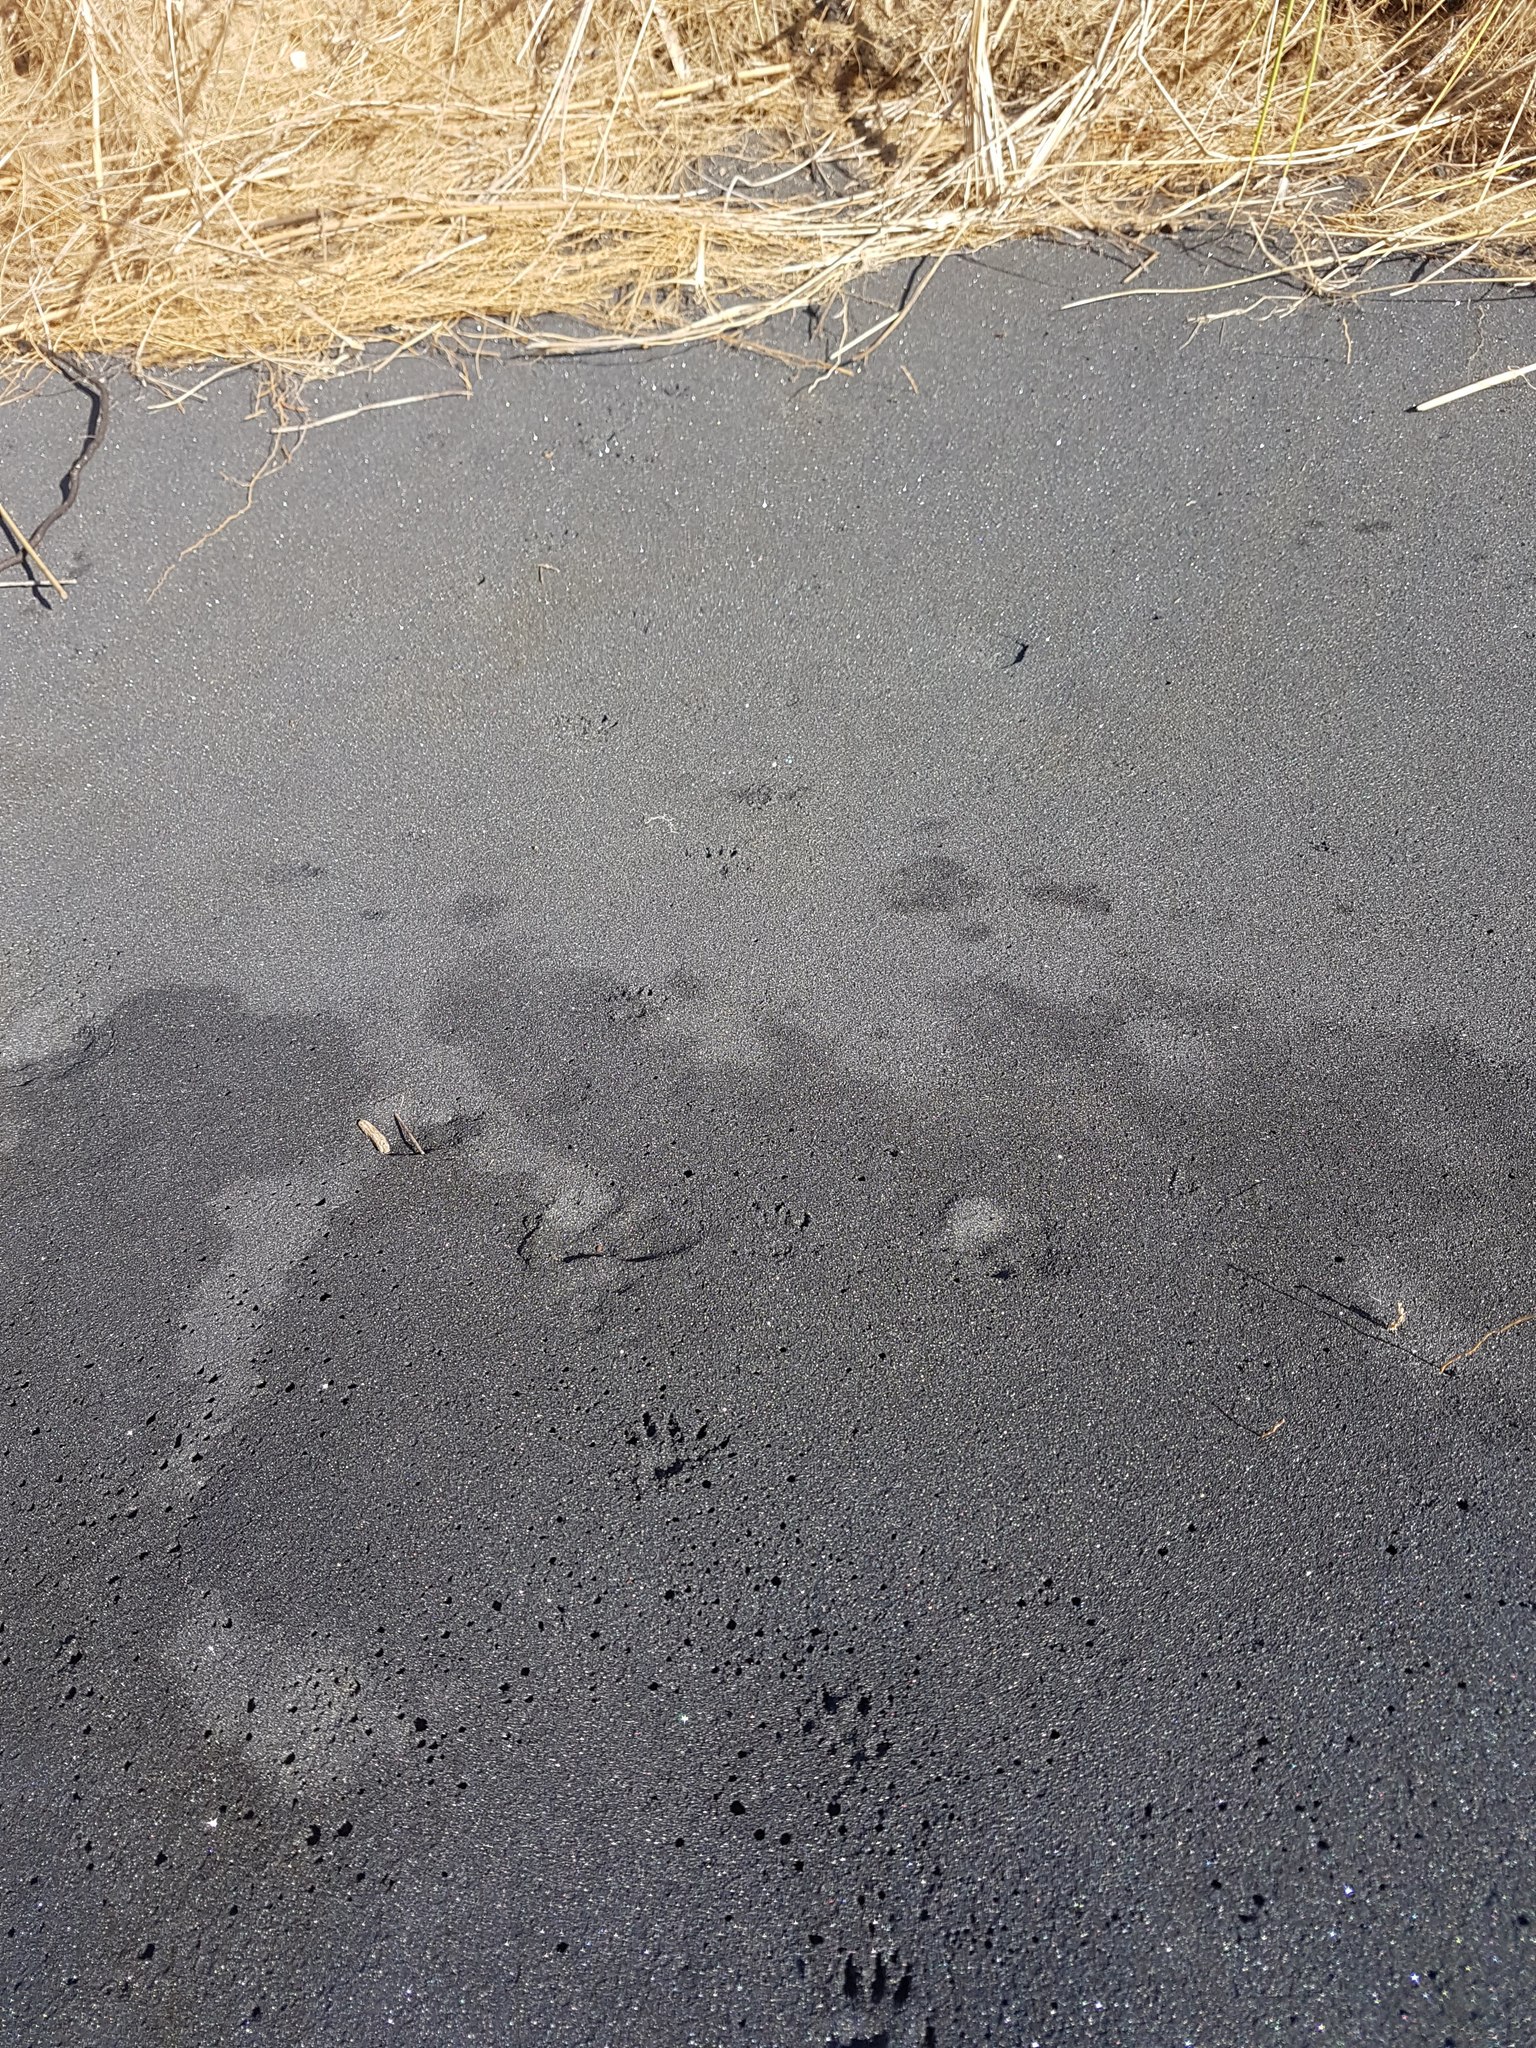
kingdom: Animalia
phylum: Chordata
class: Mammalia
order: Rodentia
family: Muridae
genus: Rattus
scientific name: Rattus rattus
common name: Black rat
